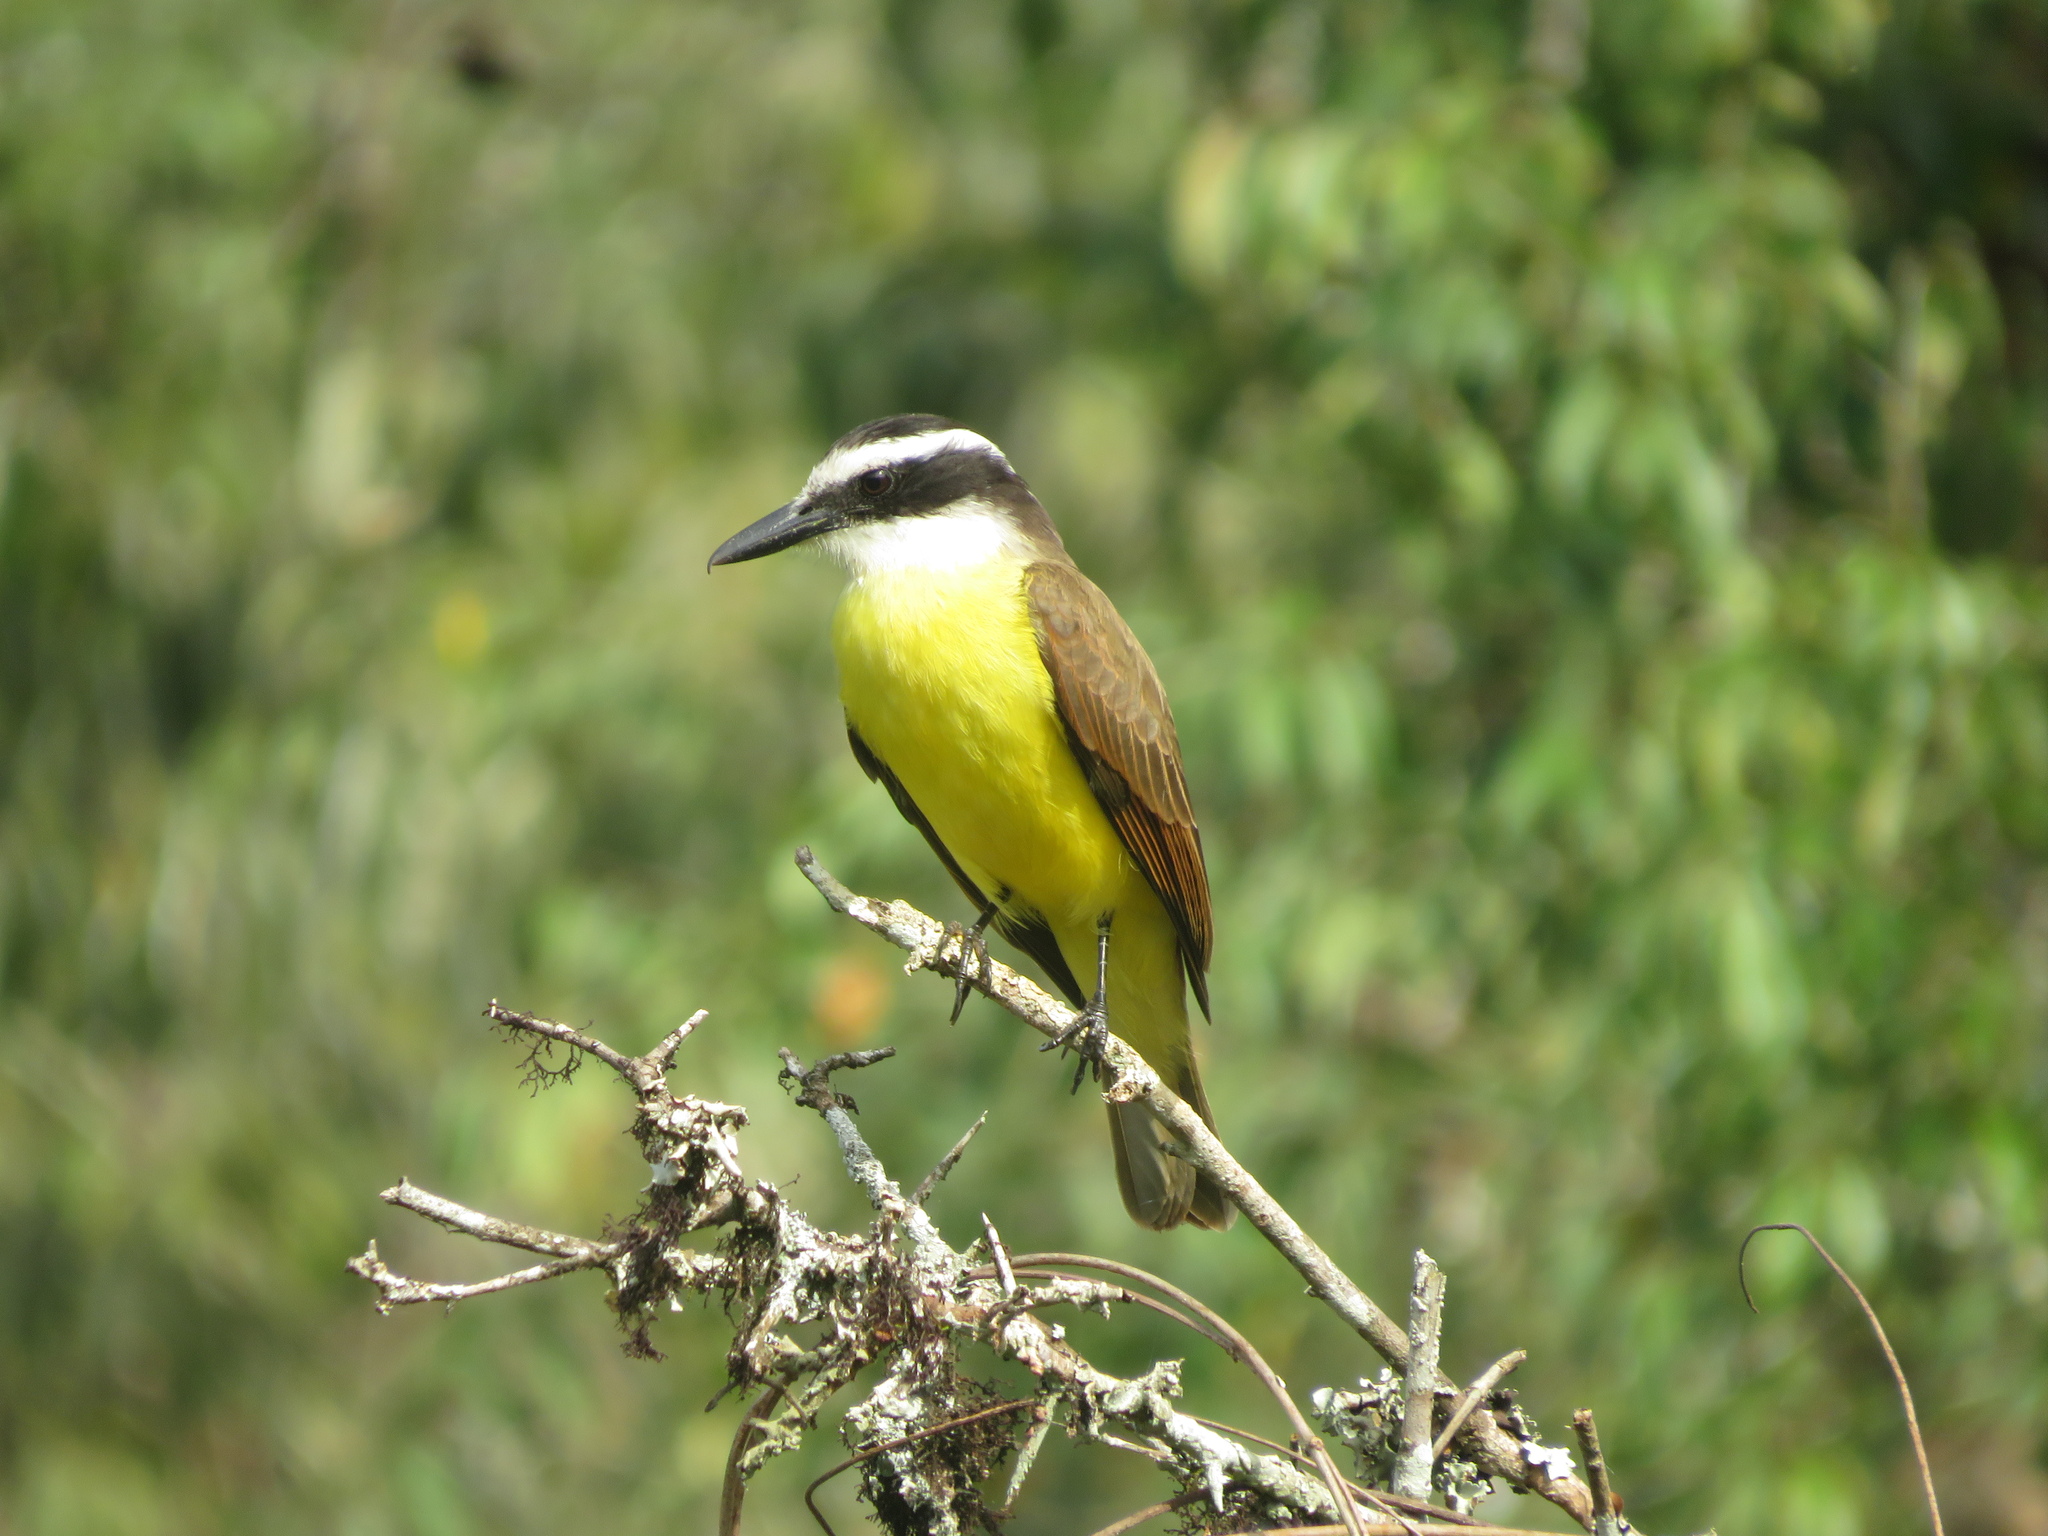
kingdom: Animalia
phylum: Chordata
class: Aves
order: Passeriformes
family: Tyrannidae
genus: Pitangus
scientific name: Pitangus sulphuratus
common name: Great kiskadee
